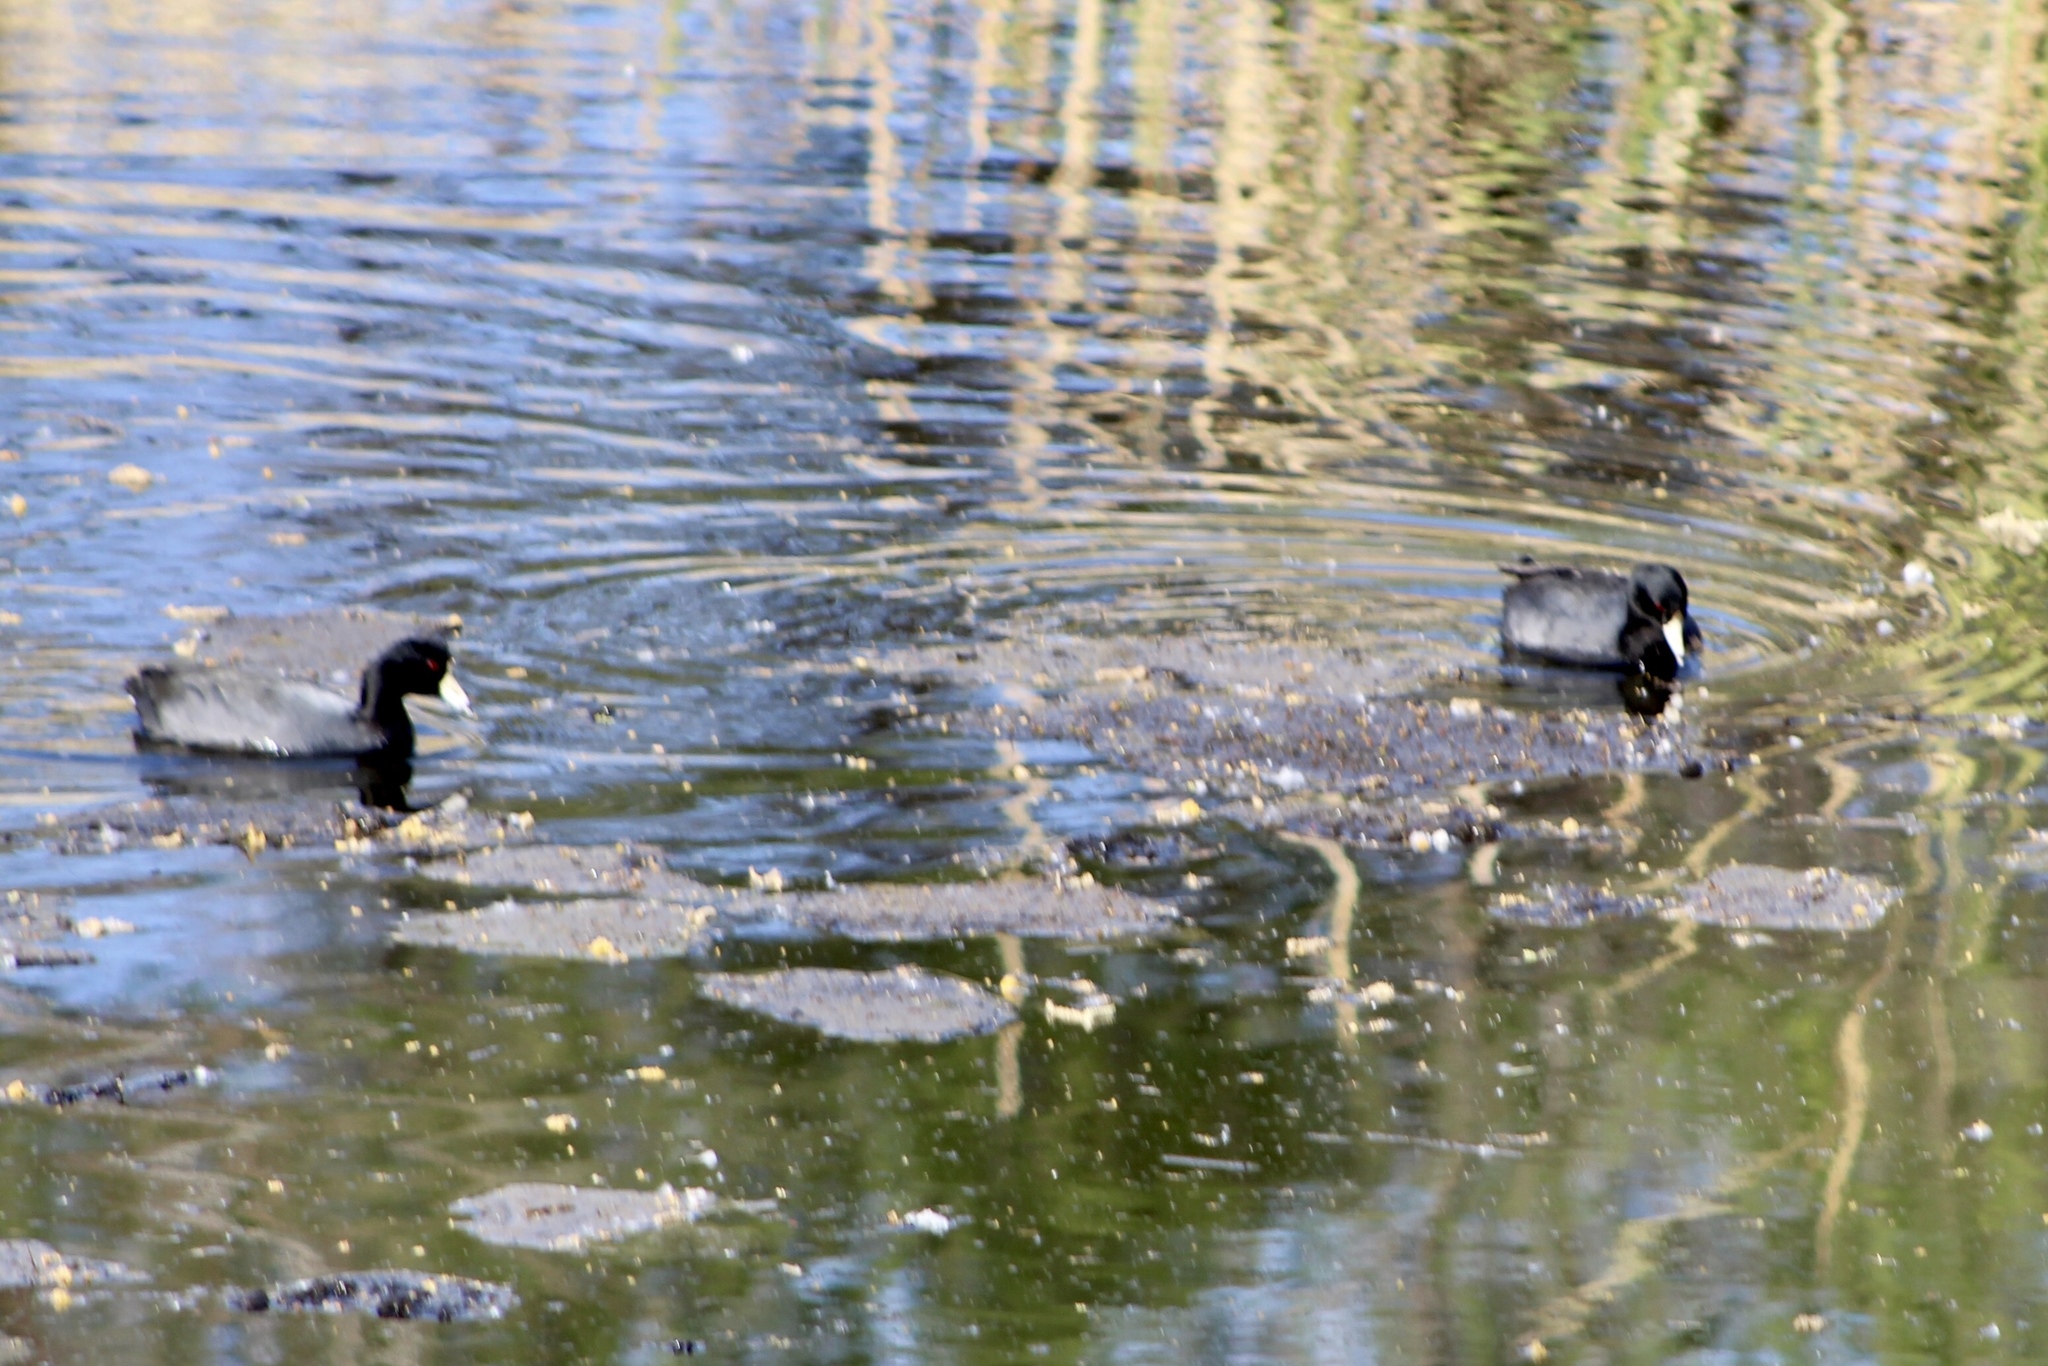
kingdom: Animalia
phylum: Chordata
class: Aves
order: Gruiformes
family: Rallidae
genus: Fulica
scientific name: Fulica americana
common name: American coot
